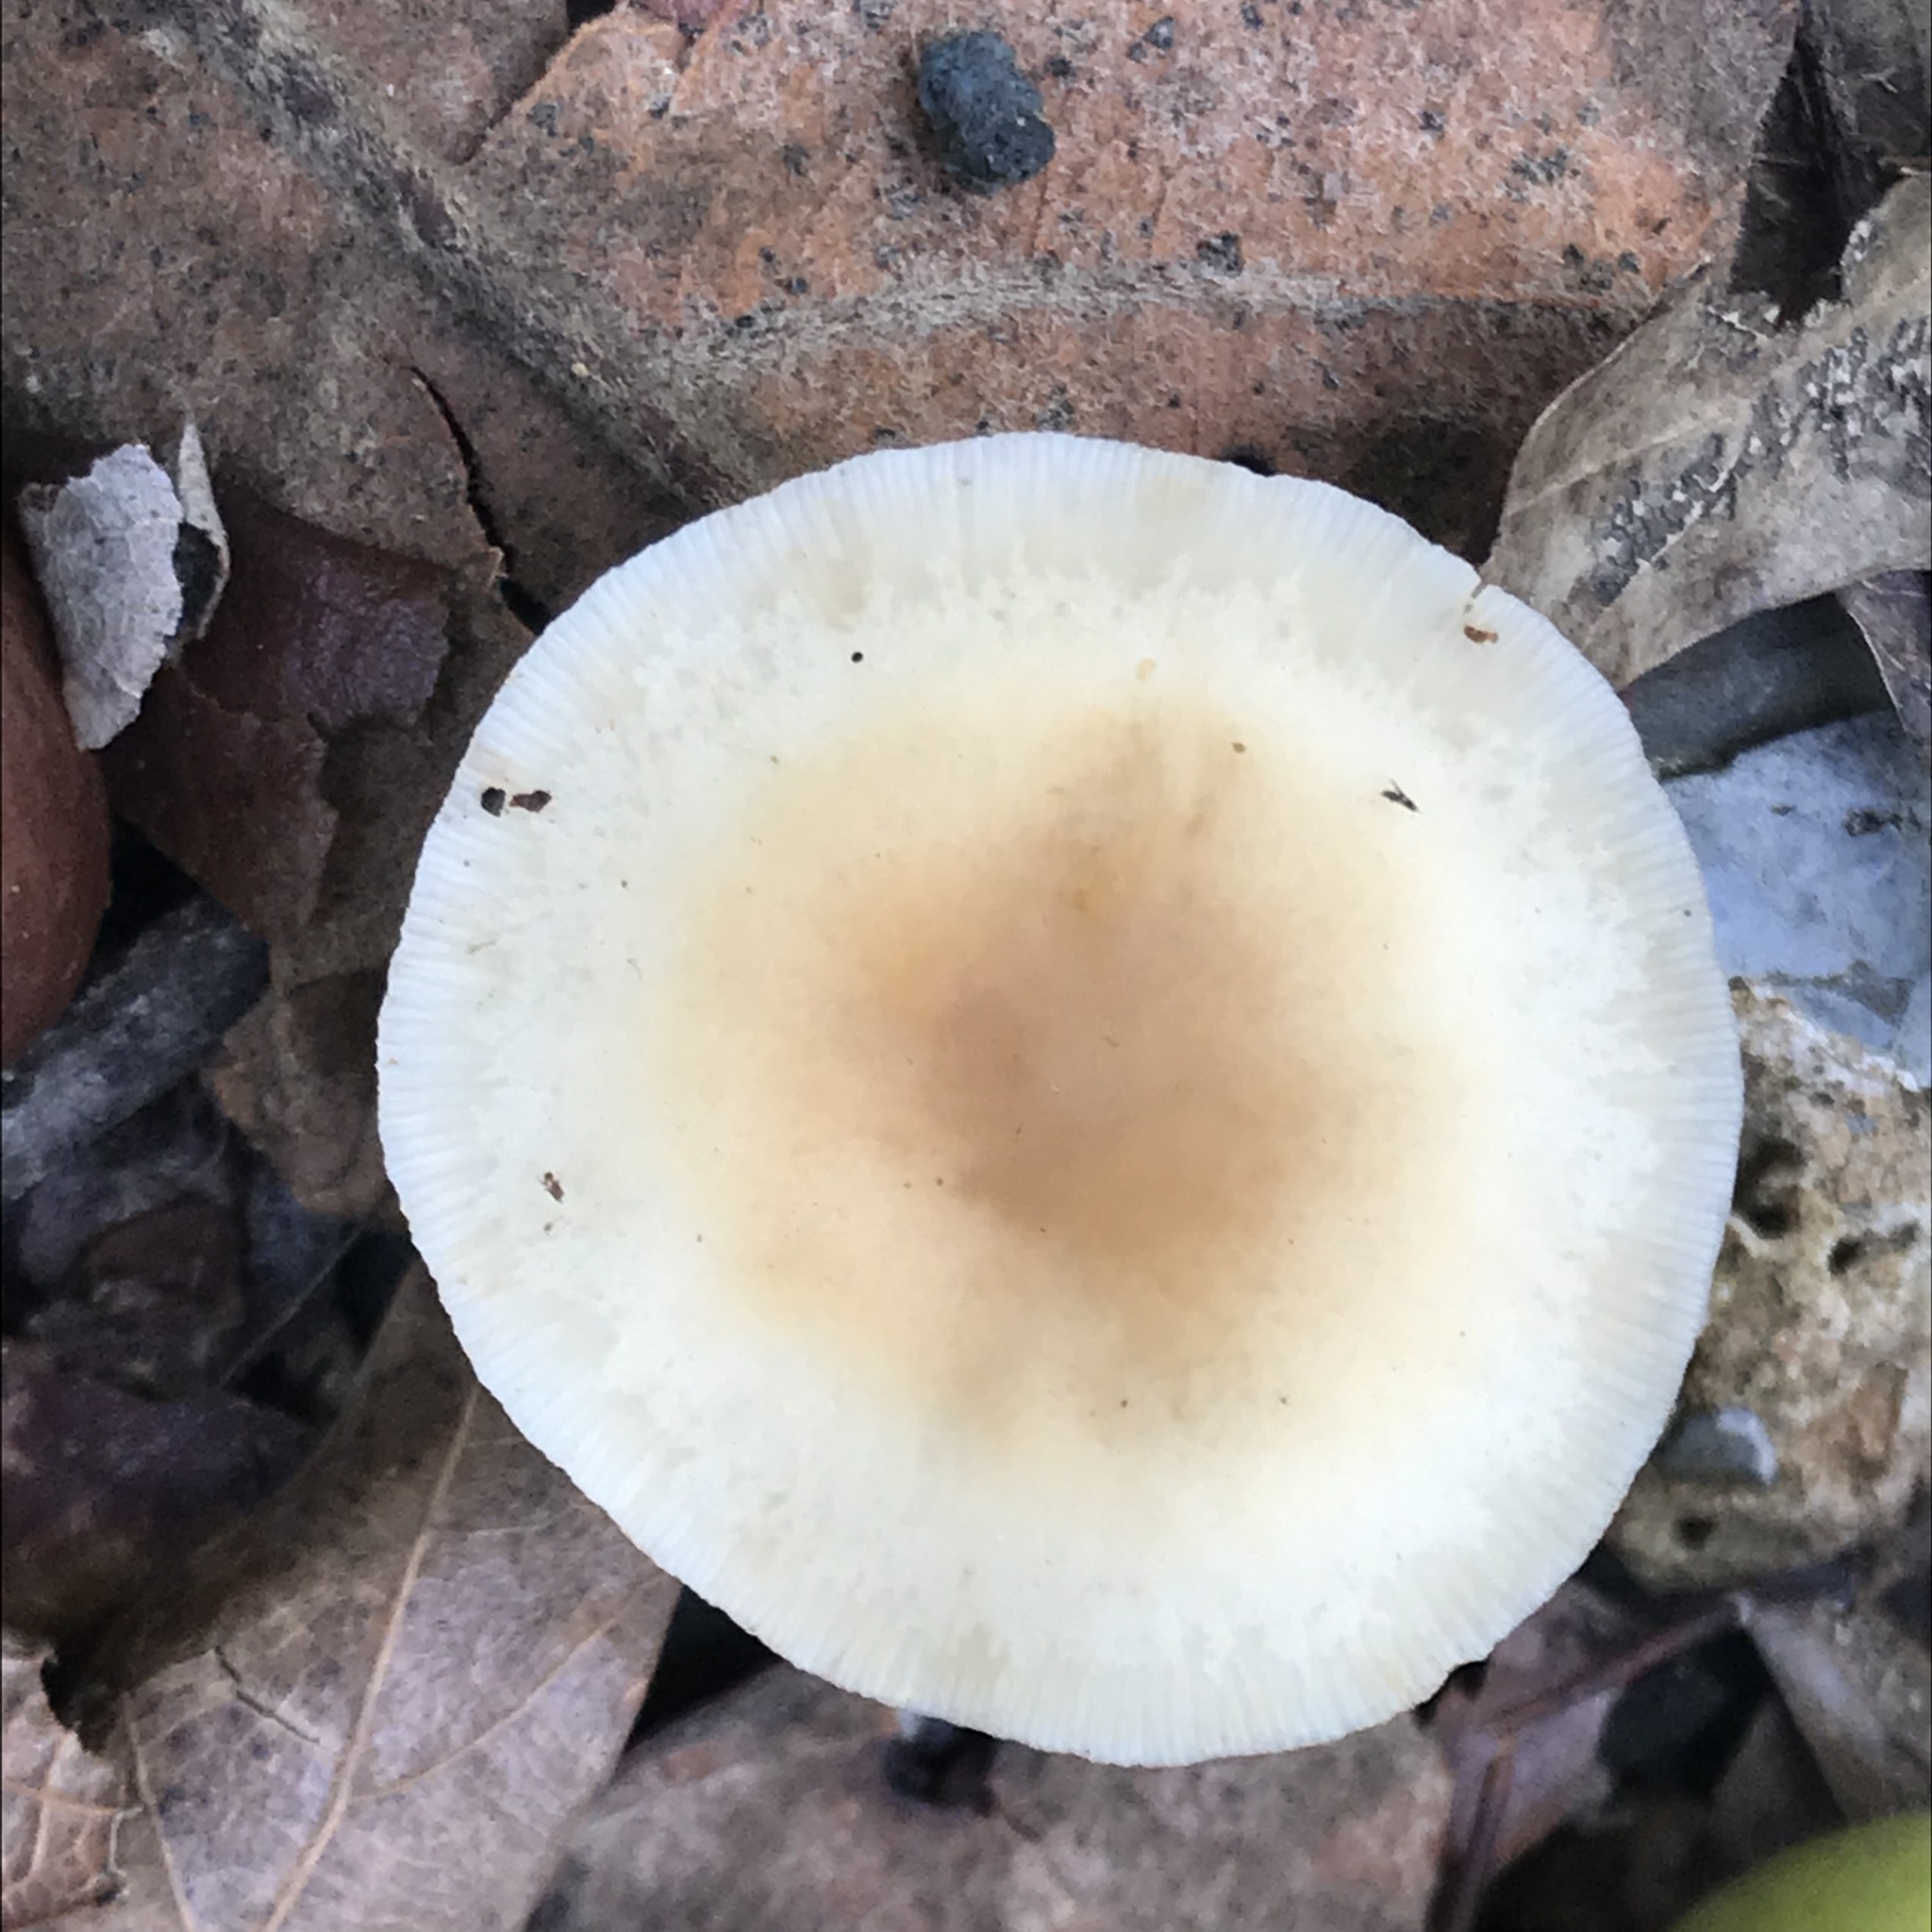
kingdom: Fungi
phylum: Basidiomycota
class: Agaricomycetes
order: Agaricales
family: Omphalotaceae
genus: Gymnopus
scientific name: Gymnopus dryophilus
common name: Penny top
